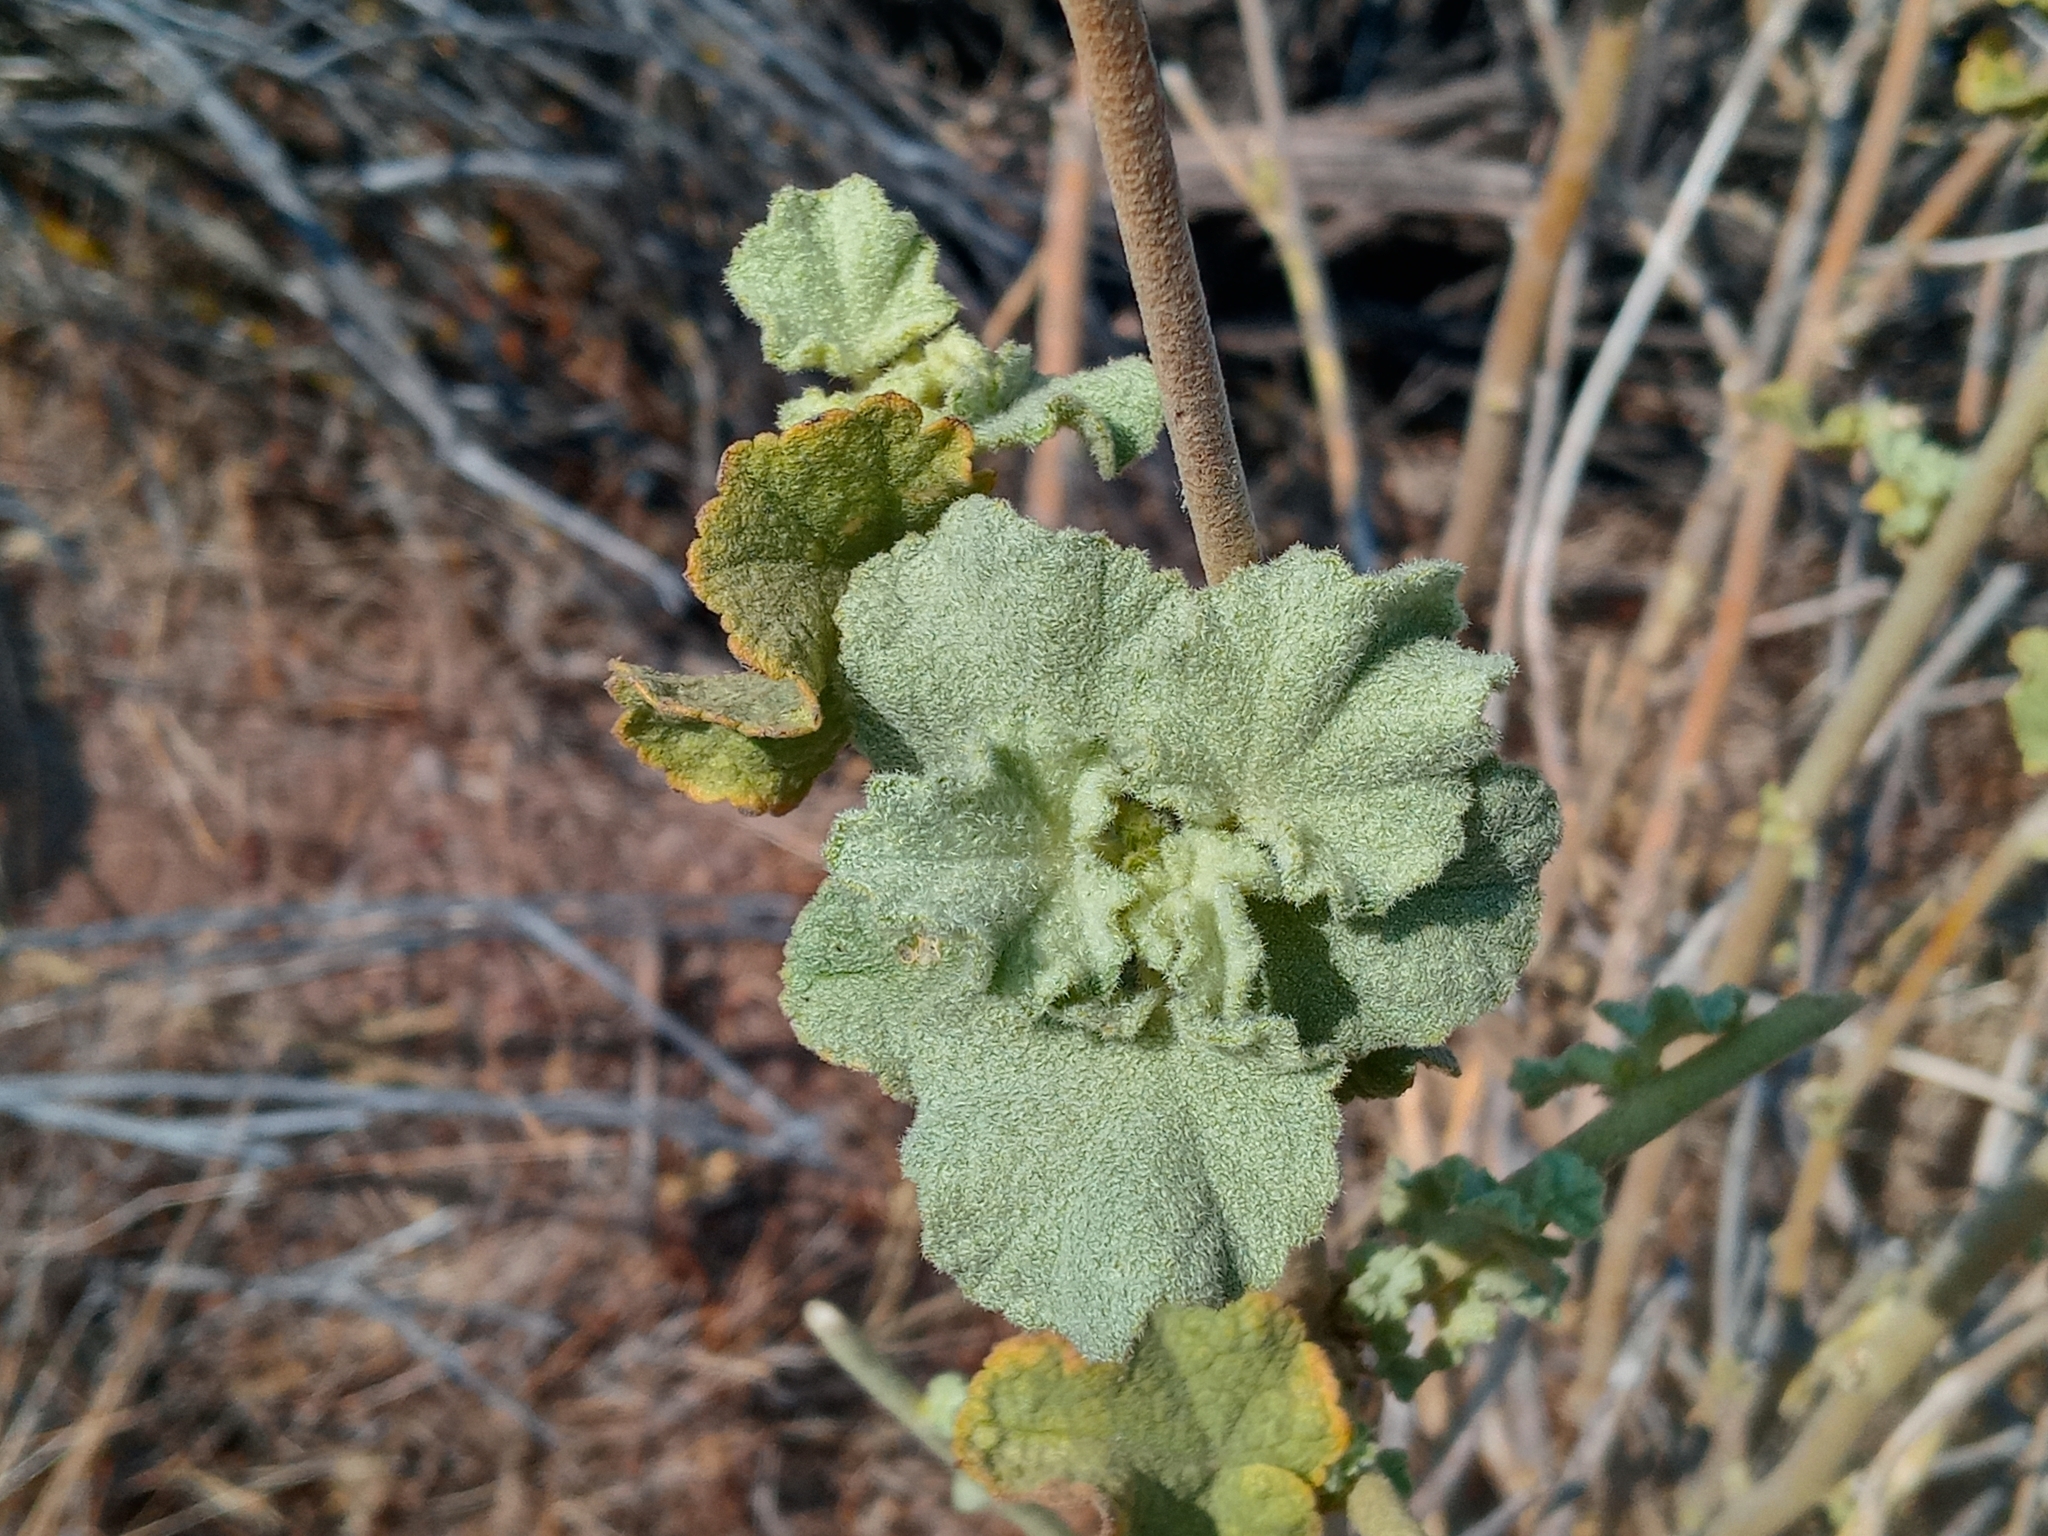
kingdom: Plantae
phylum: Tracheophyta
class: Magnoliopsida
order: Malvales
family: Malvaceae
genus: Malacothamnus
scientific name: Malacothamnus fremontii
